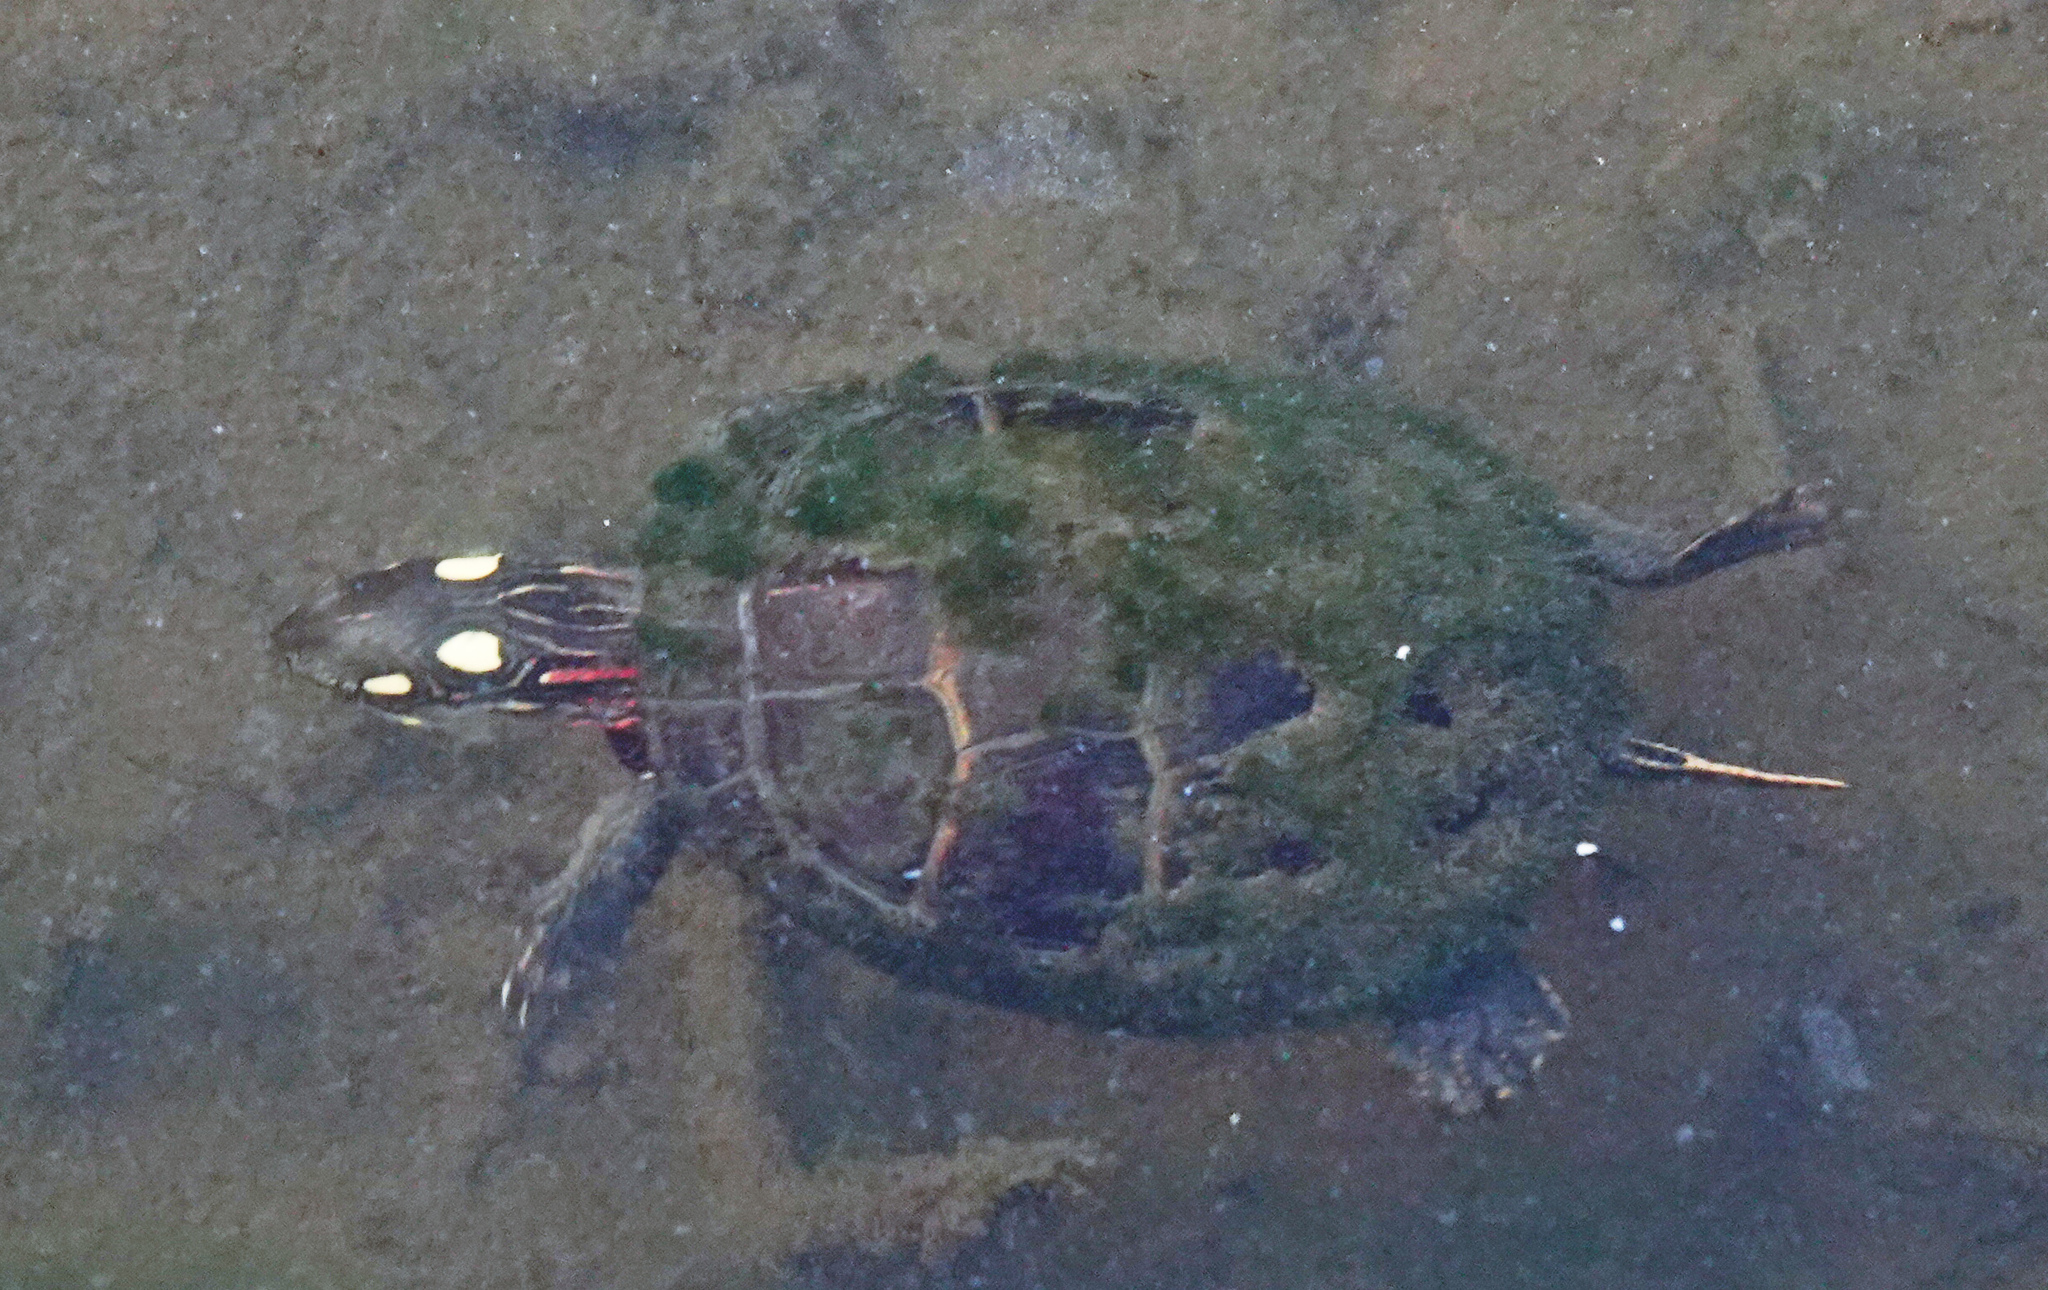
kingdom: Animalia
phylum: Chordata
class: Testudines
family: Emydidae
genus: Chrysemys
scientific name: Chrysemys picta
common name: Painted turtle
